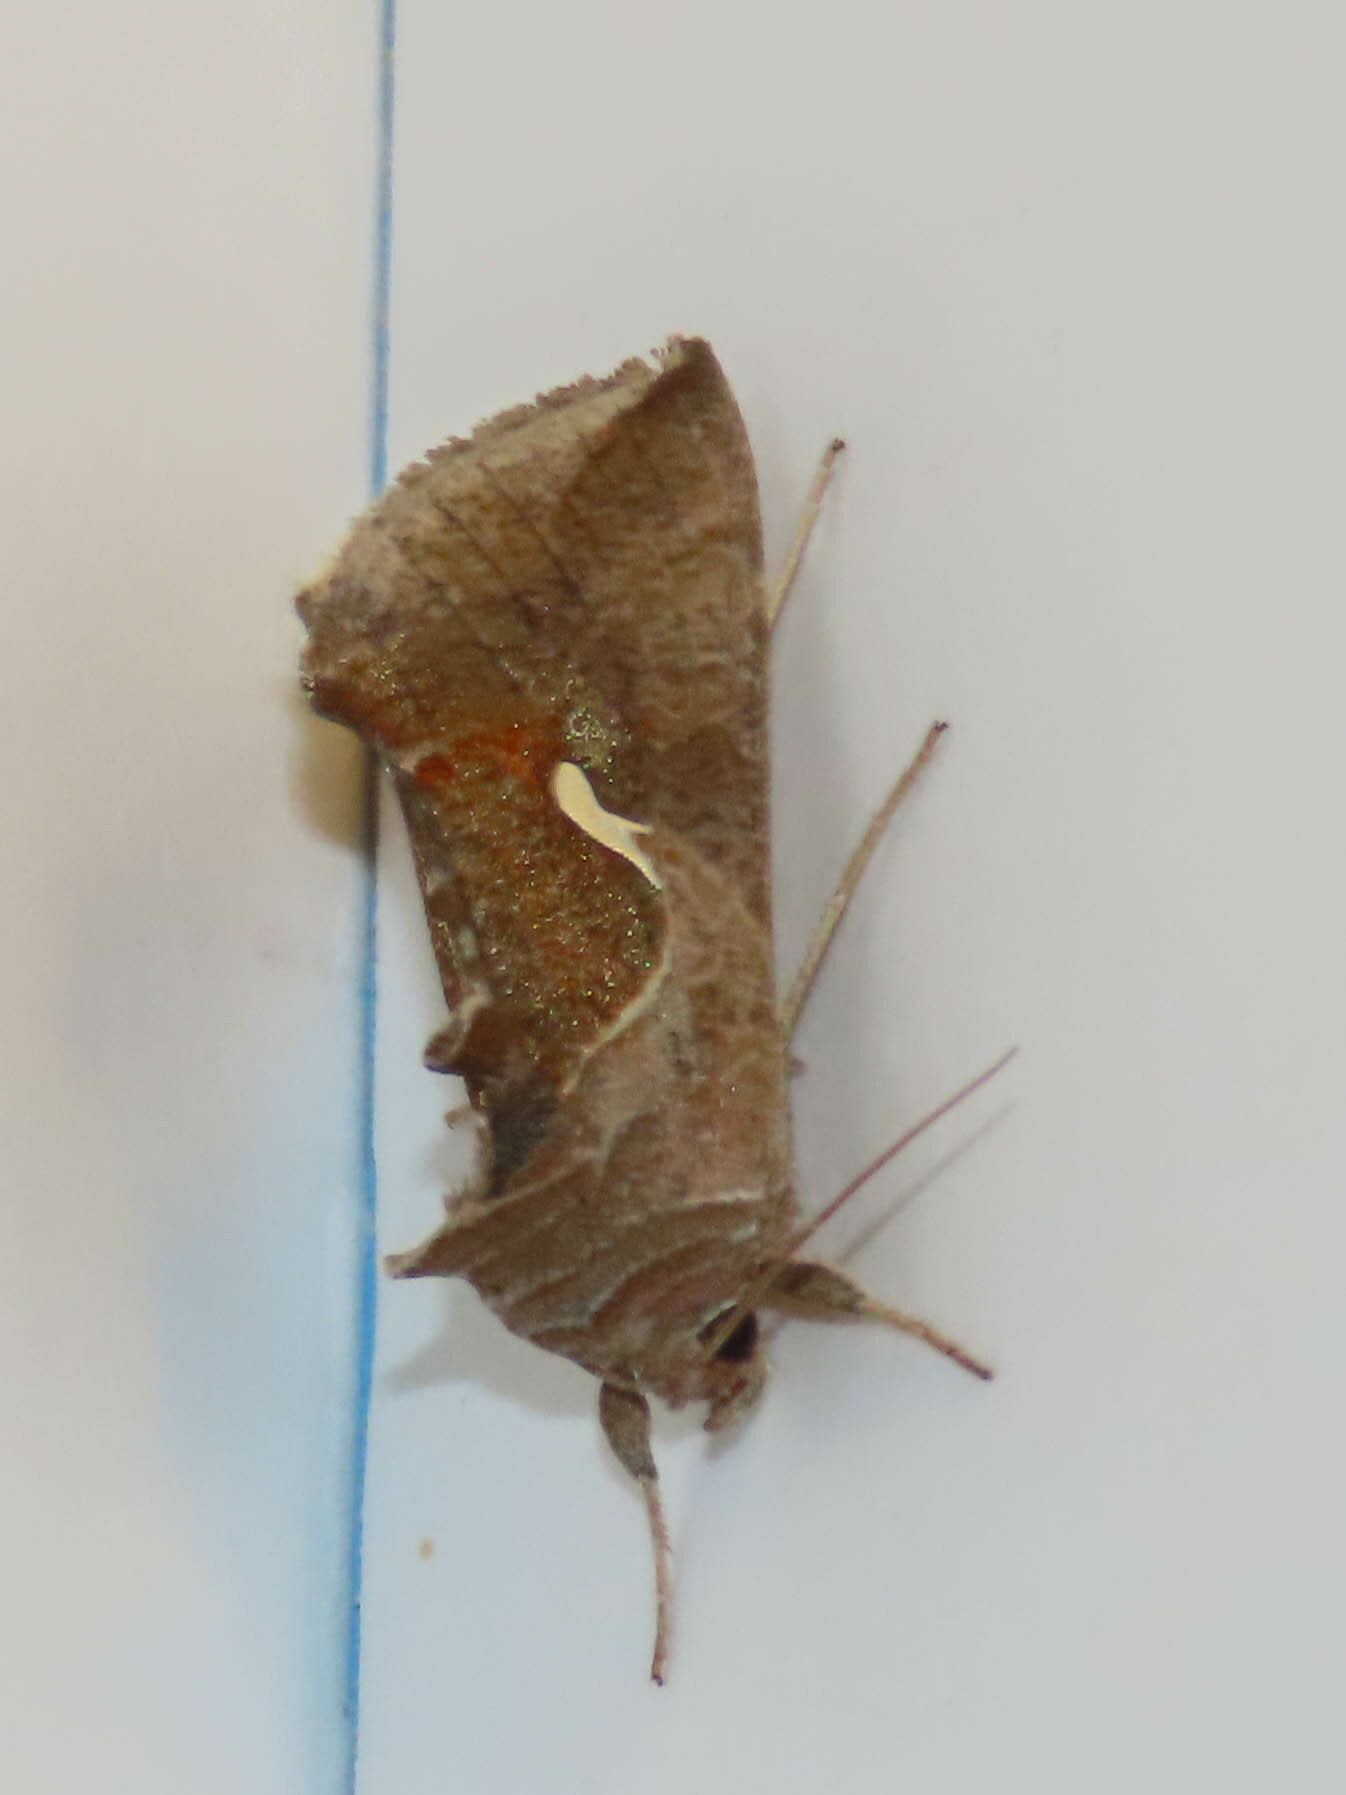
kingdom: Animalia
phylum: Arthropoda
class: Insecta
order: Lepidoptera
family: Noctuidae
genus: Anagrapha
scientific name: Anagrapha falcifera
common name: Celery looper
